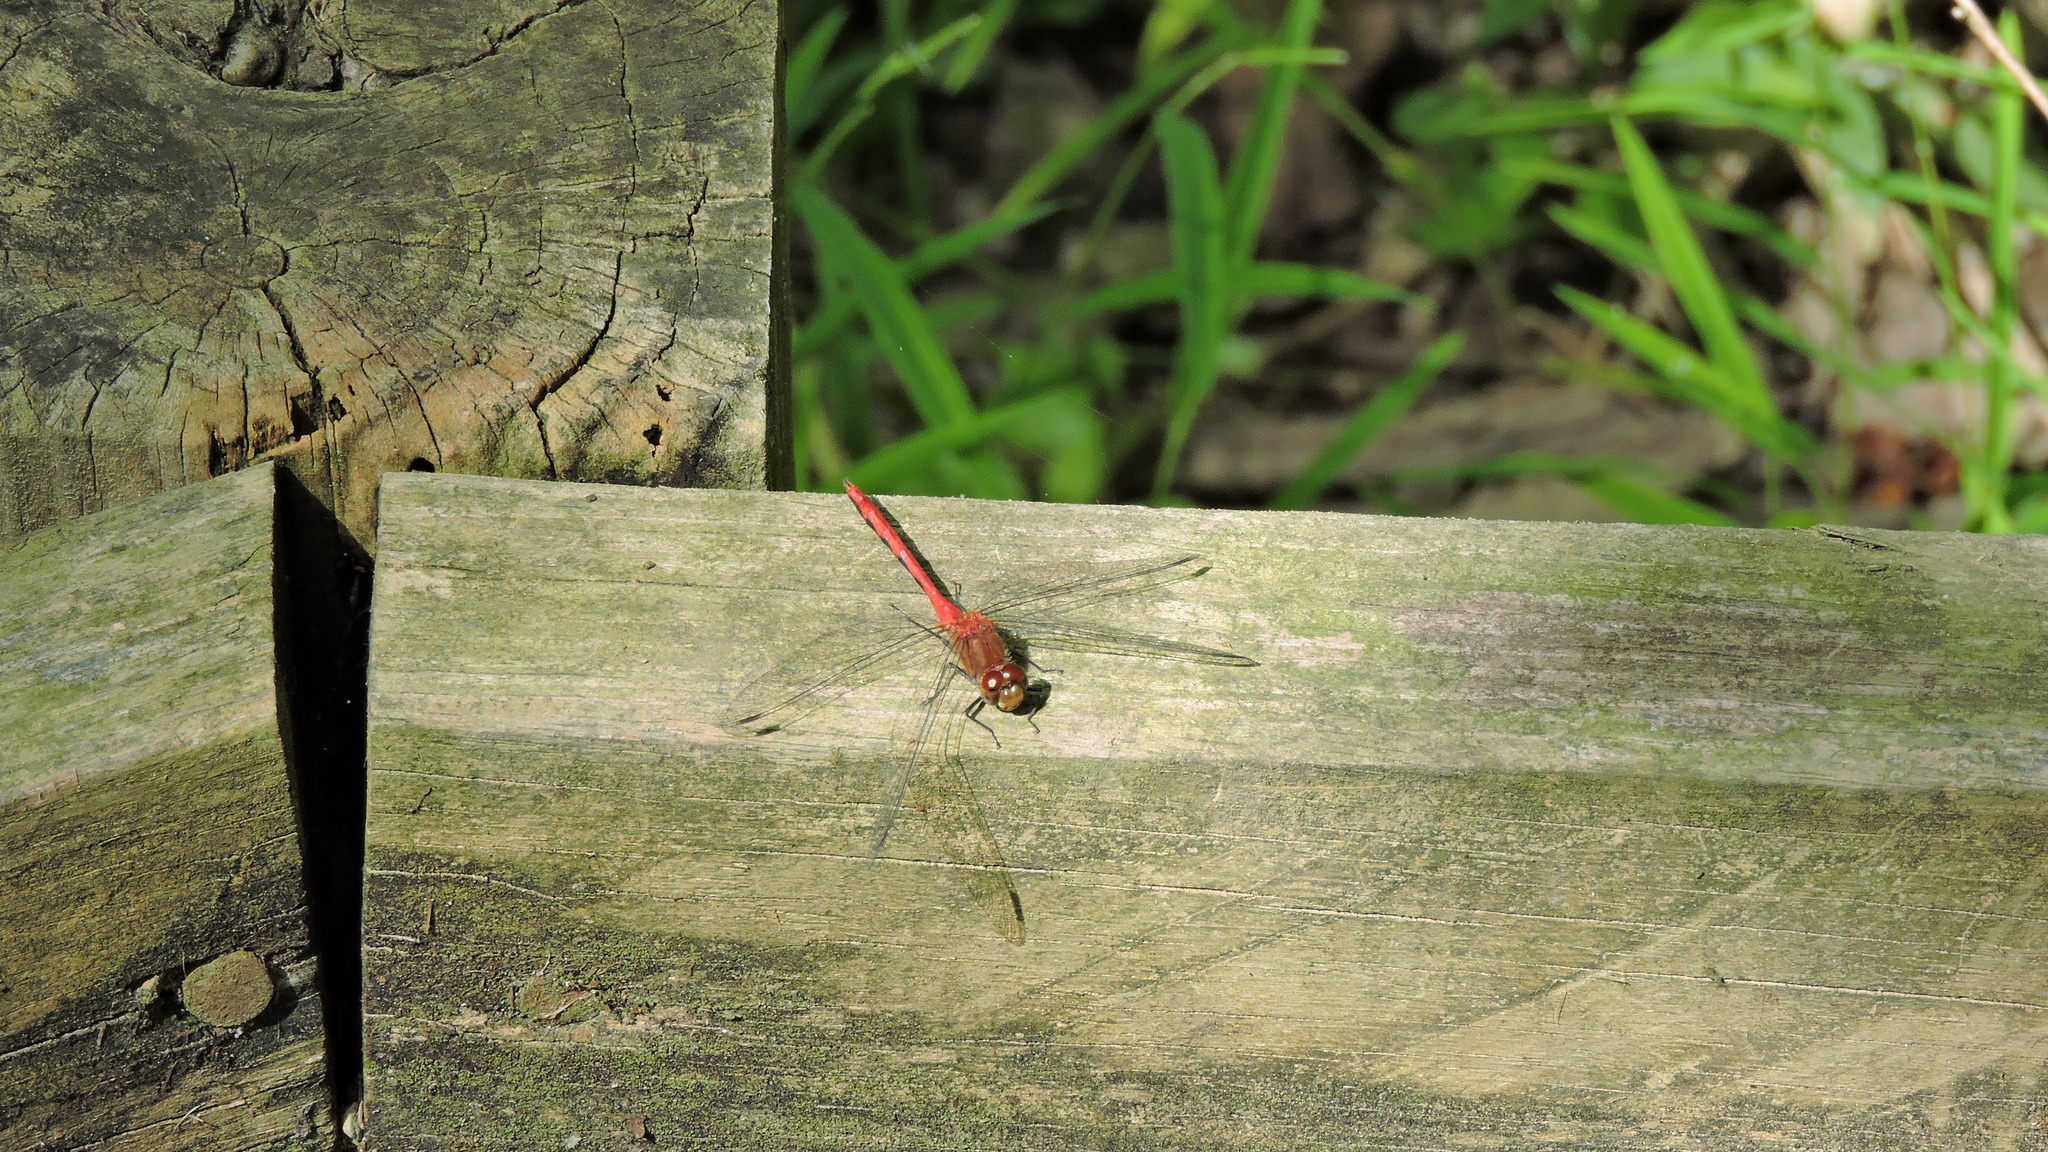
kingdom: Animalia
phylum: Arthropoda
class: Insecta
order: Odonata
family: Libellulidae
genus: Sympetrum
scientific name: Sympetrum
